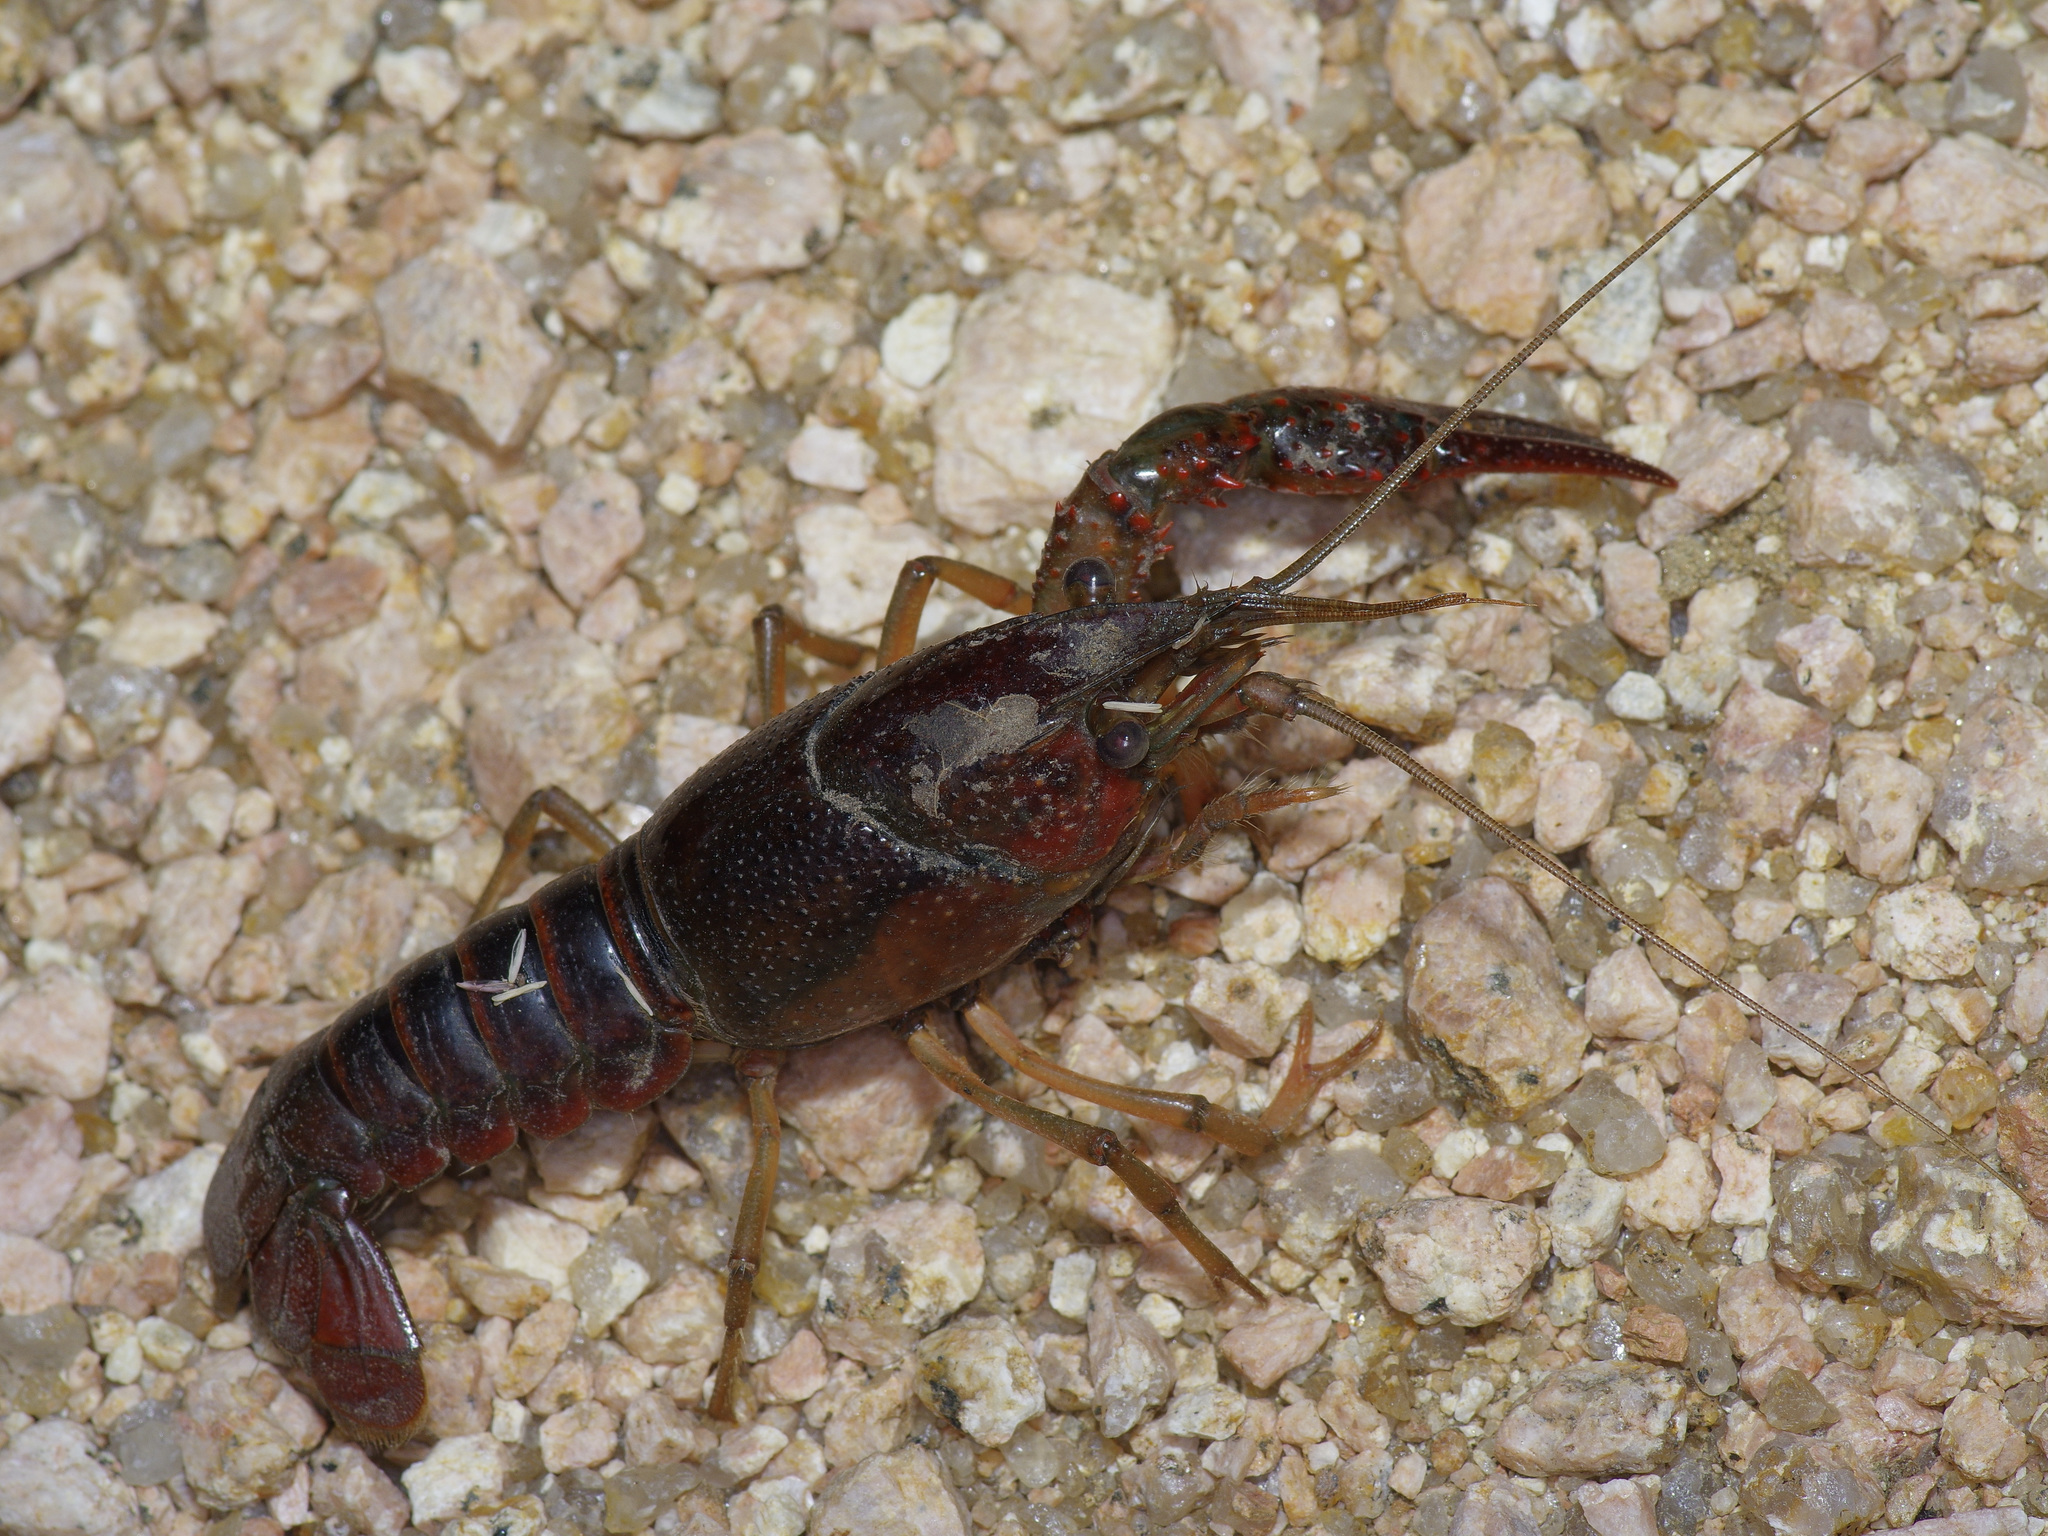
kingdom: Animalia
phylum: Arthropoda
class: Malacostraca
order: Decapoda
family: Cambaridae
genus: Procambarus
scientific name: Procambarus clarkii
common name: Red swamp crayfish
